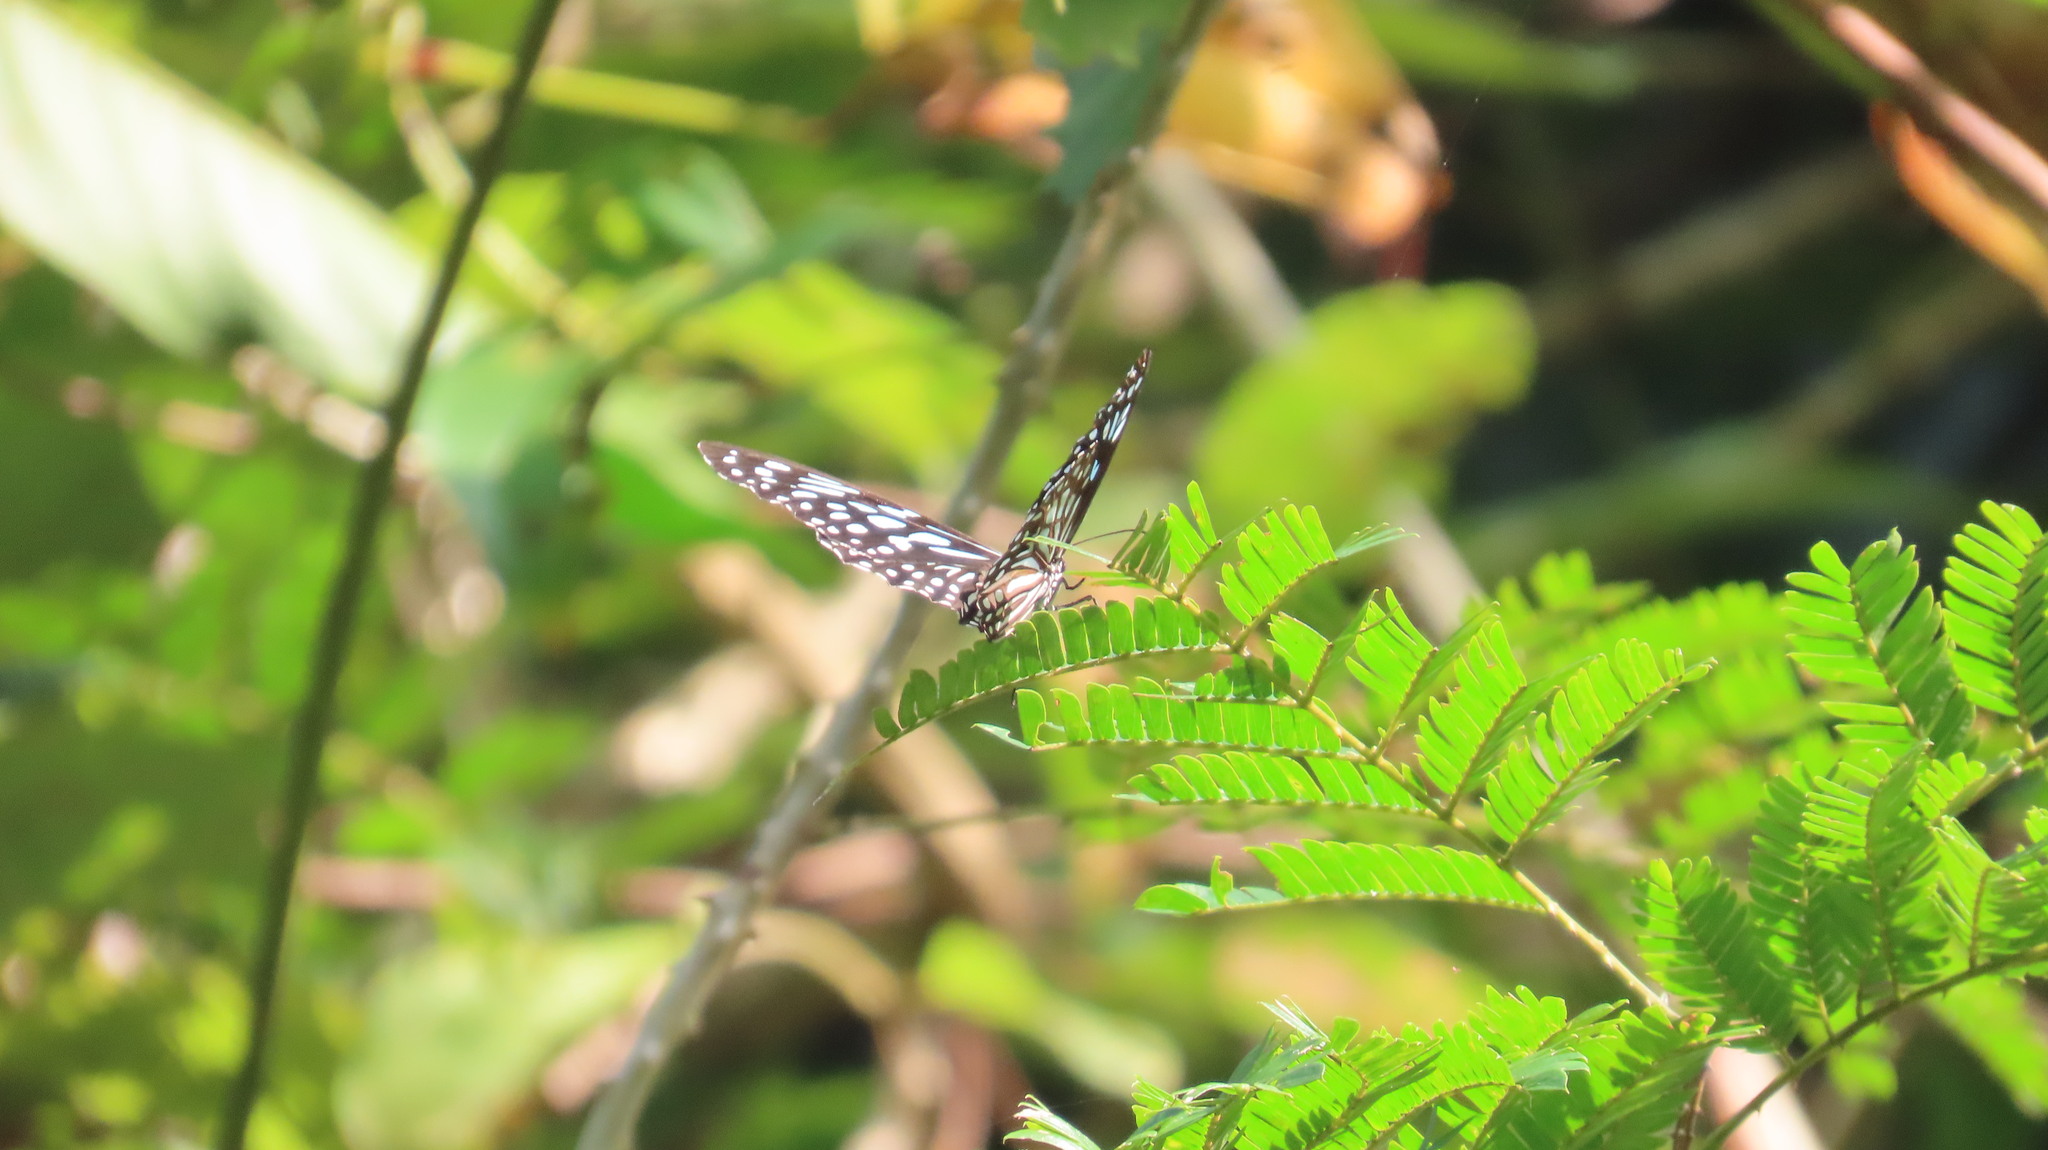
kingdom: Animalia
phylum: Arthropoda
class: Insecta
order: Lepidoptera
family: Nymphalidae
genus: Tirumala
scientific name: Tirumala septentrionis
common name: Dark blue tiger butterfly
